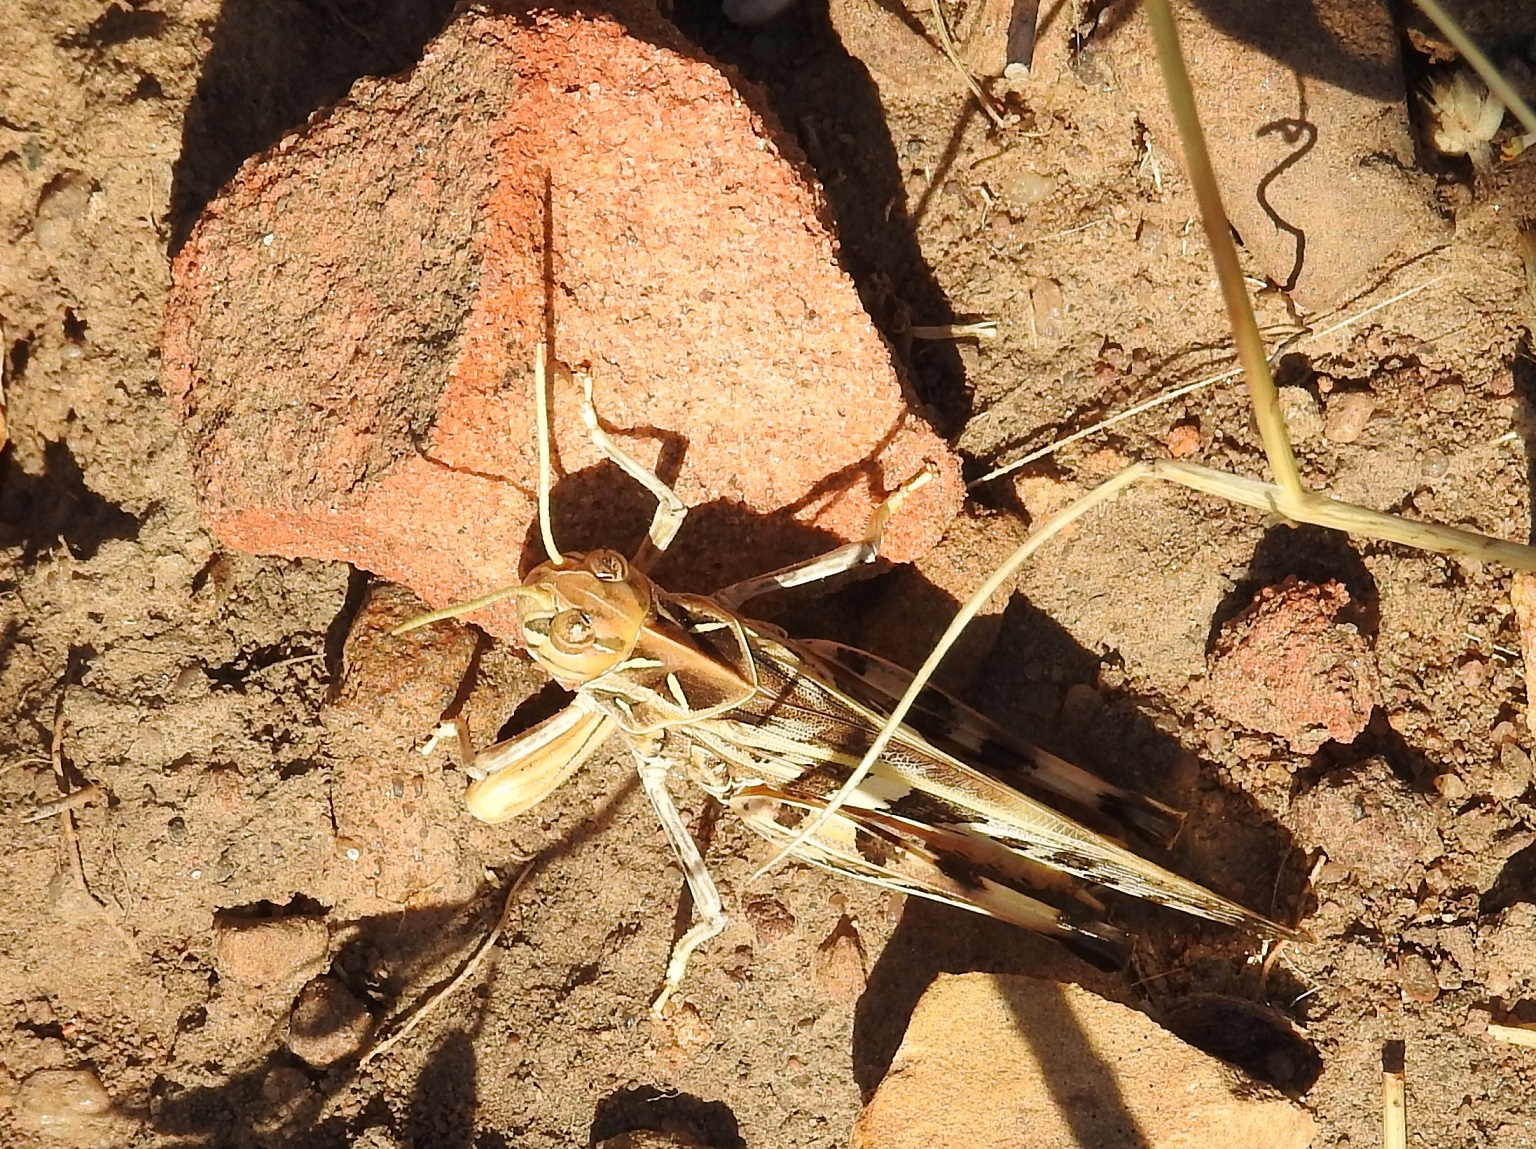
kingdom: Animalia
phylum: Arthropoda
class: Insecta
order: Orthoptera
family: Acrididae
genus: Oedaleus
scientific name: Oedaleus decorus
